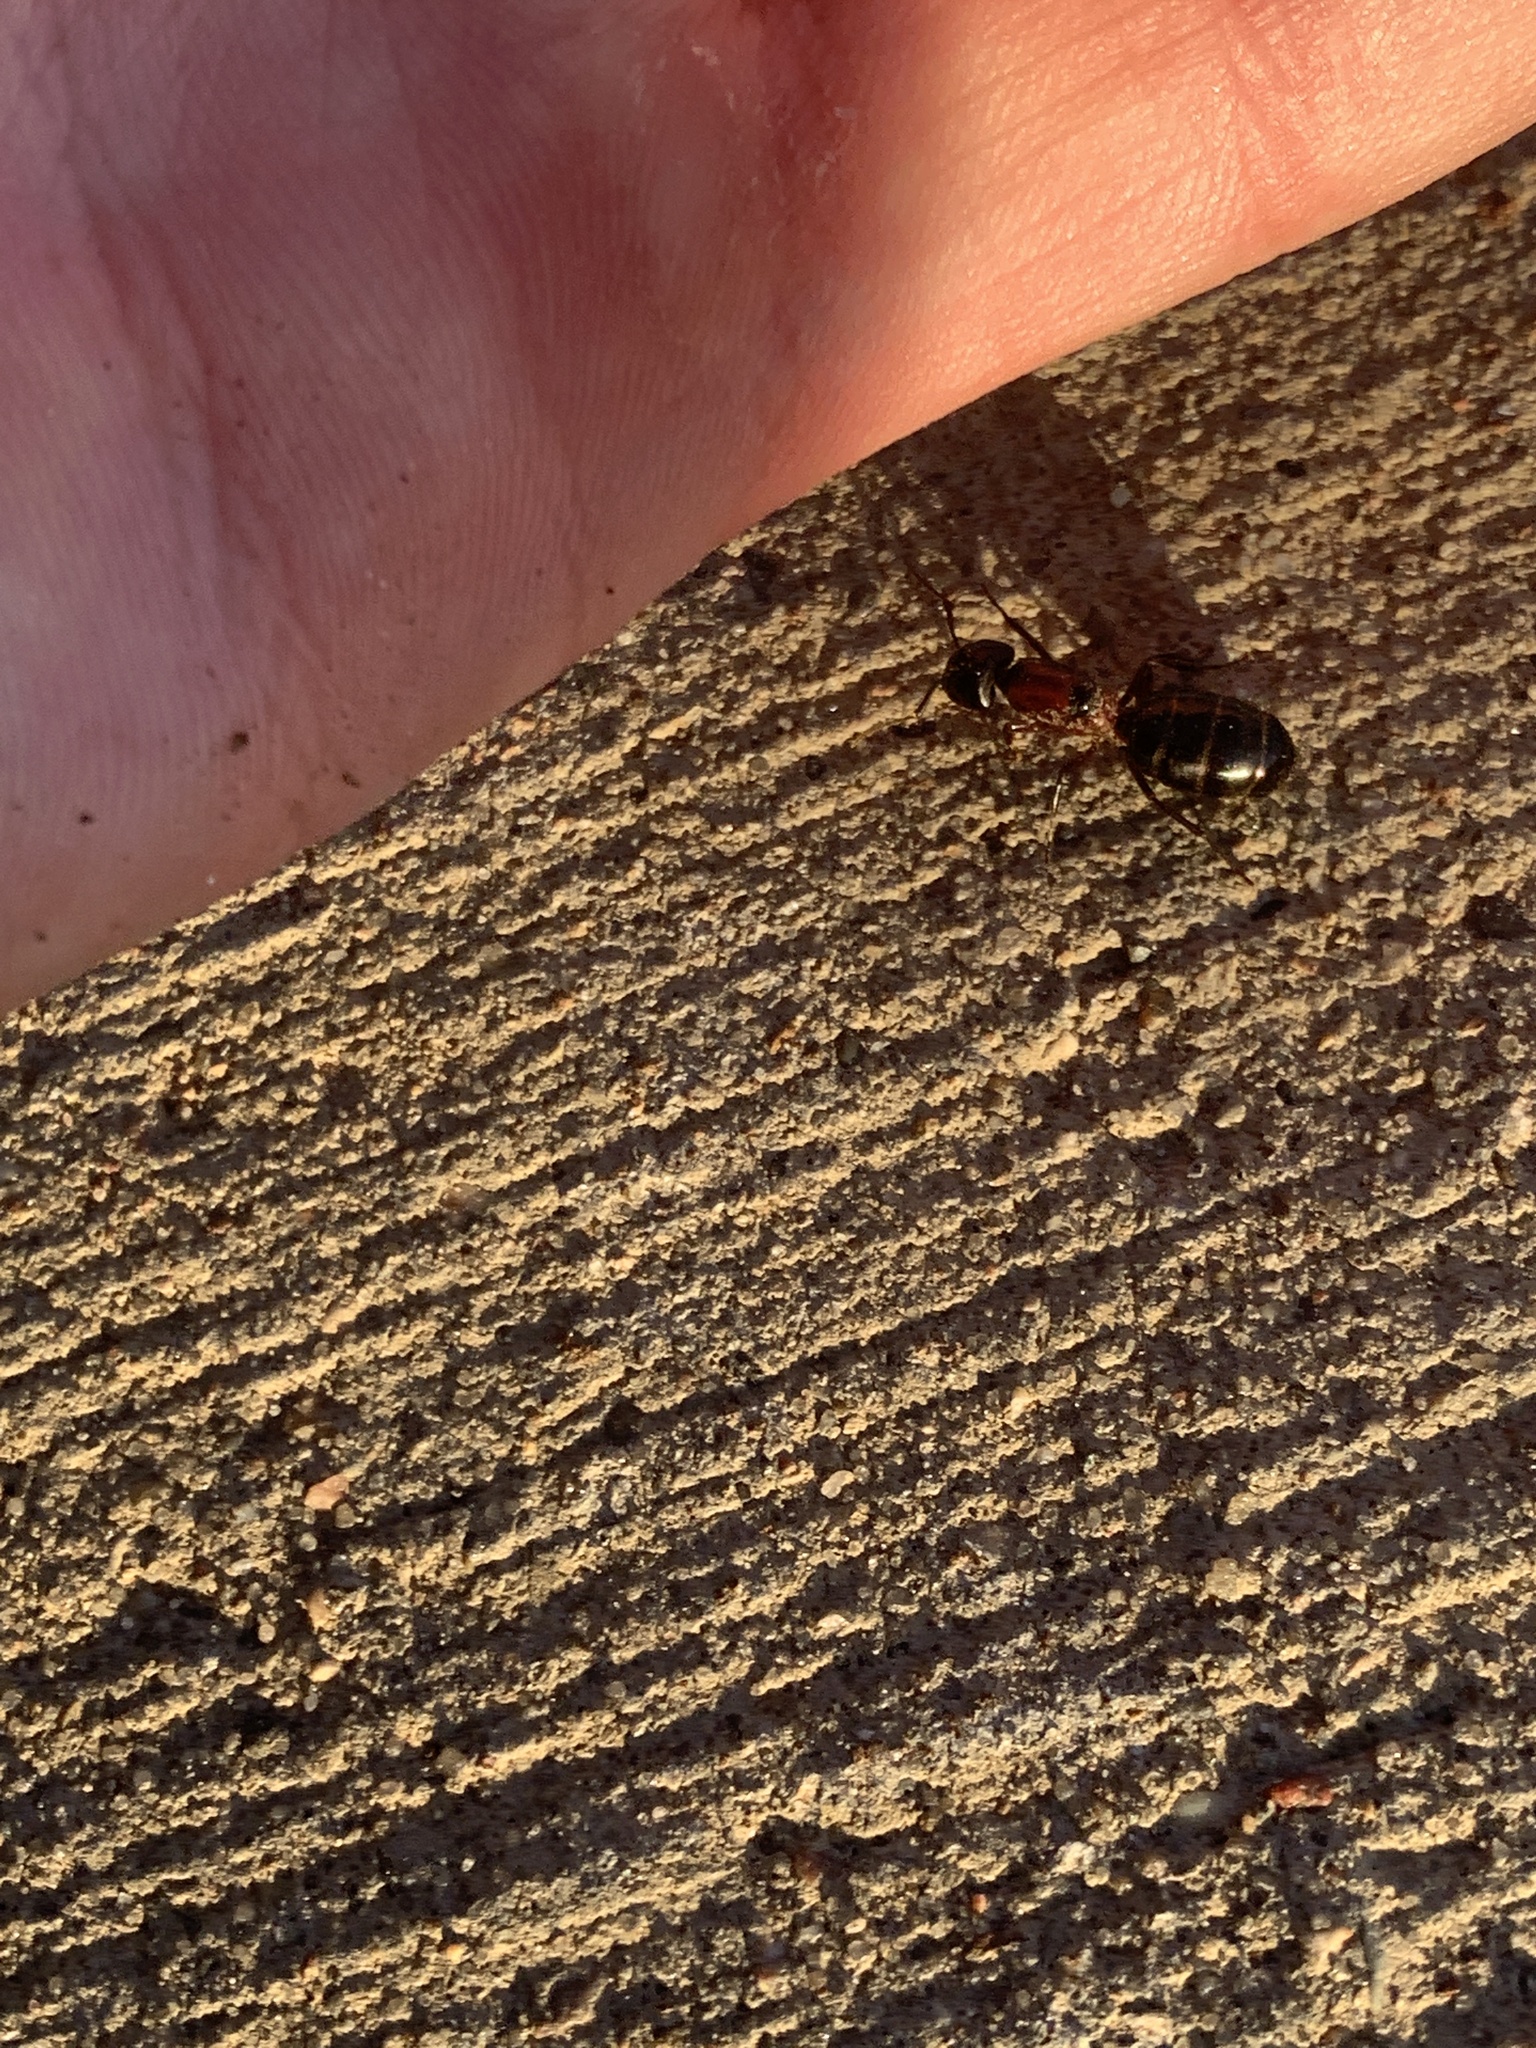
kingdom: Animalia
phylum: Arthropoda
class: Insecta
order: Hymenoptera
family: Formicidae
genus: Camponotus
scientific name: Camponotus novaeboracensis
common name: New york carpenter ant
